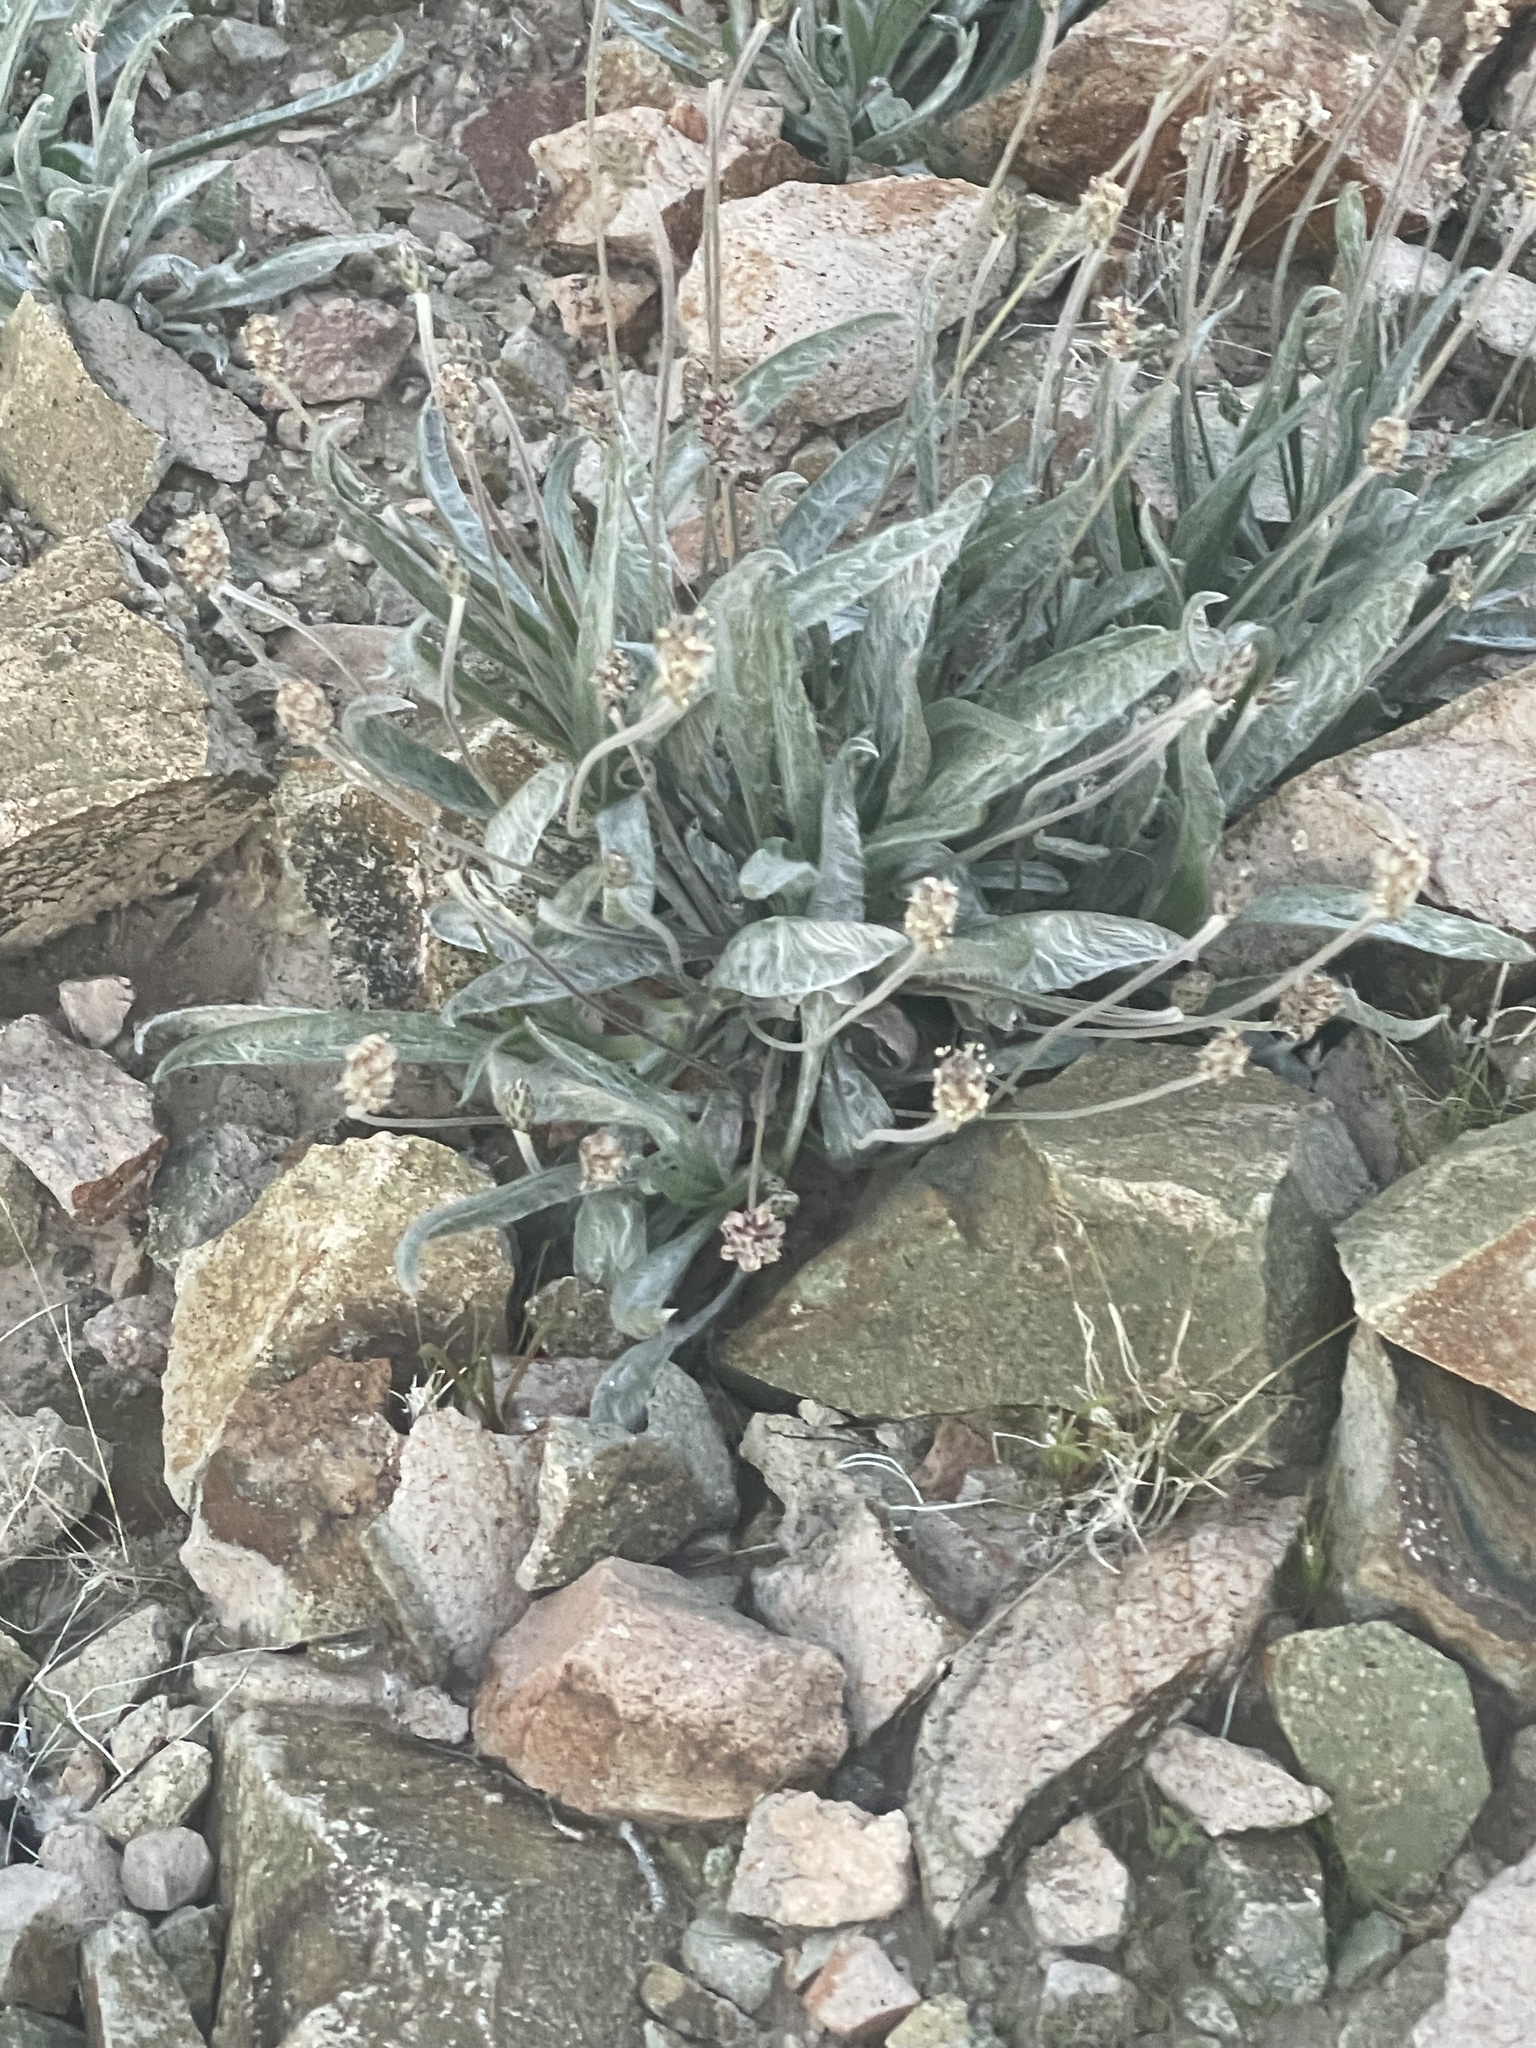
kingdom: Plantae
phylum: Tracheophyta
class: Magnoliopsida
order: Lamiales
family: Plantaginaceae
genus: Plantago
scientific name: Plantago ovata
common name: Blond plantain
